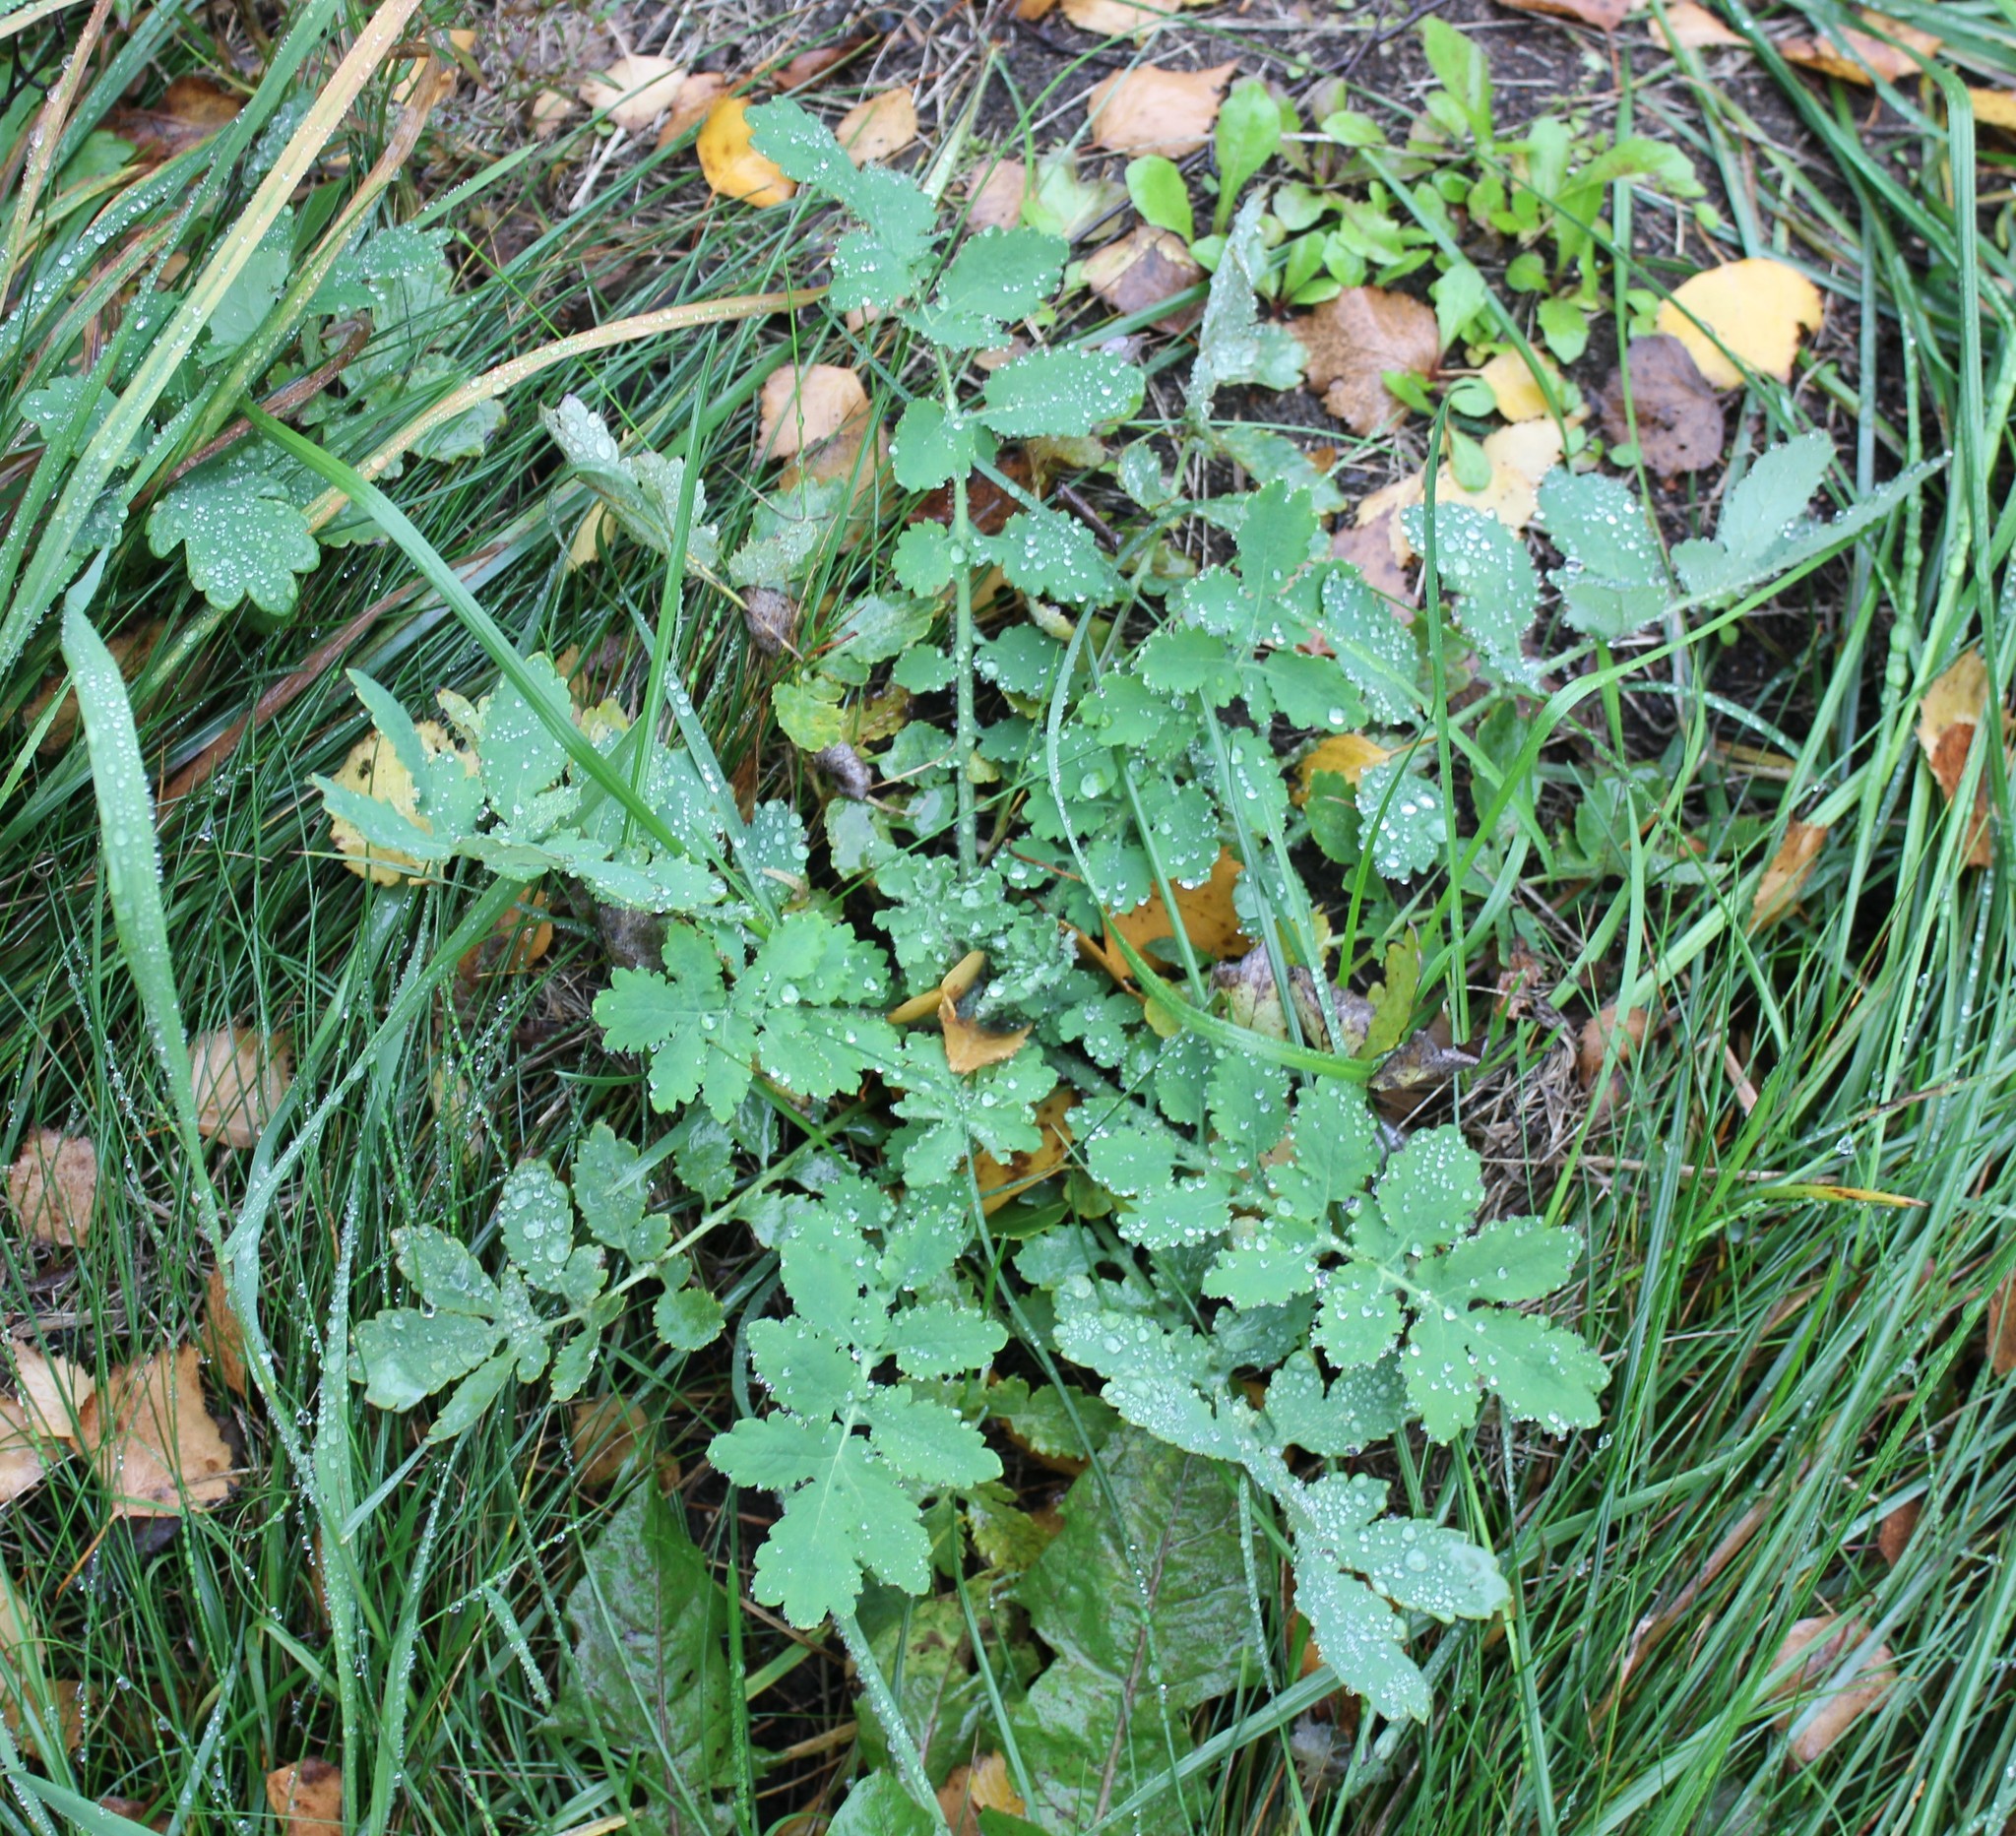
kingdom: Plantae
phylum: Tracheophyta
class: Magnoliopsida
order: Ranunculales
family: Papaveraceae
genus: Chelidonium
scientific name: Chelidonium majus
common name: Greater celandine
